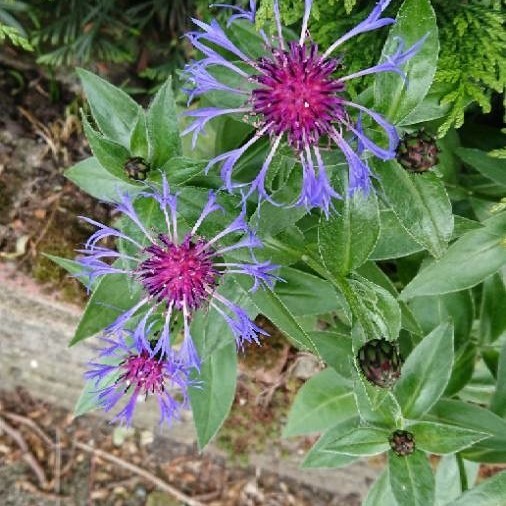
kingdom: Plantae
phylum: Tracheophyta
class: Magnoliopsida
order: Asterales
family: Asteraceae
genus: Centaurea
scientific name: Centaurea montana
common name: Perennial cornflower
